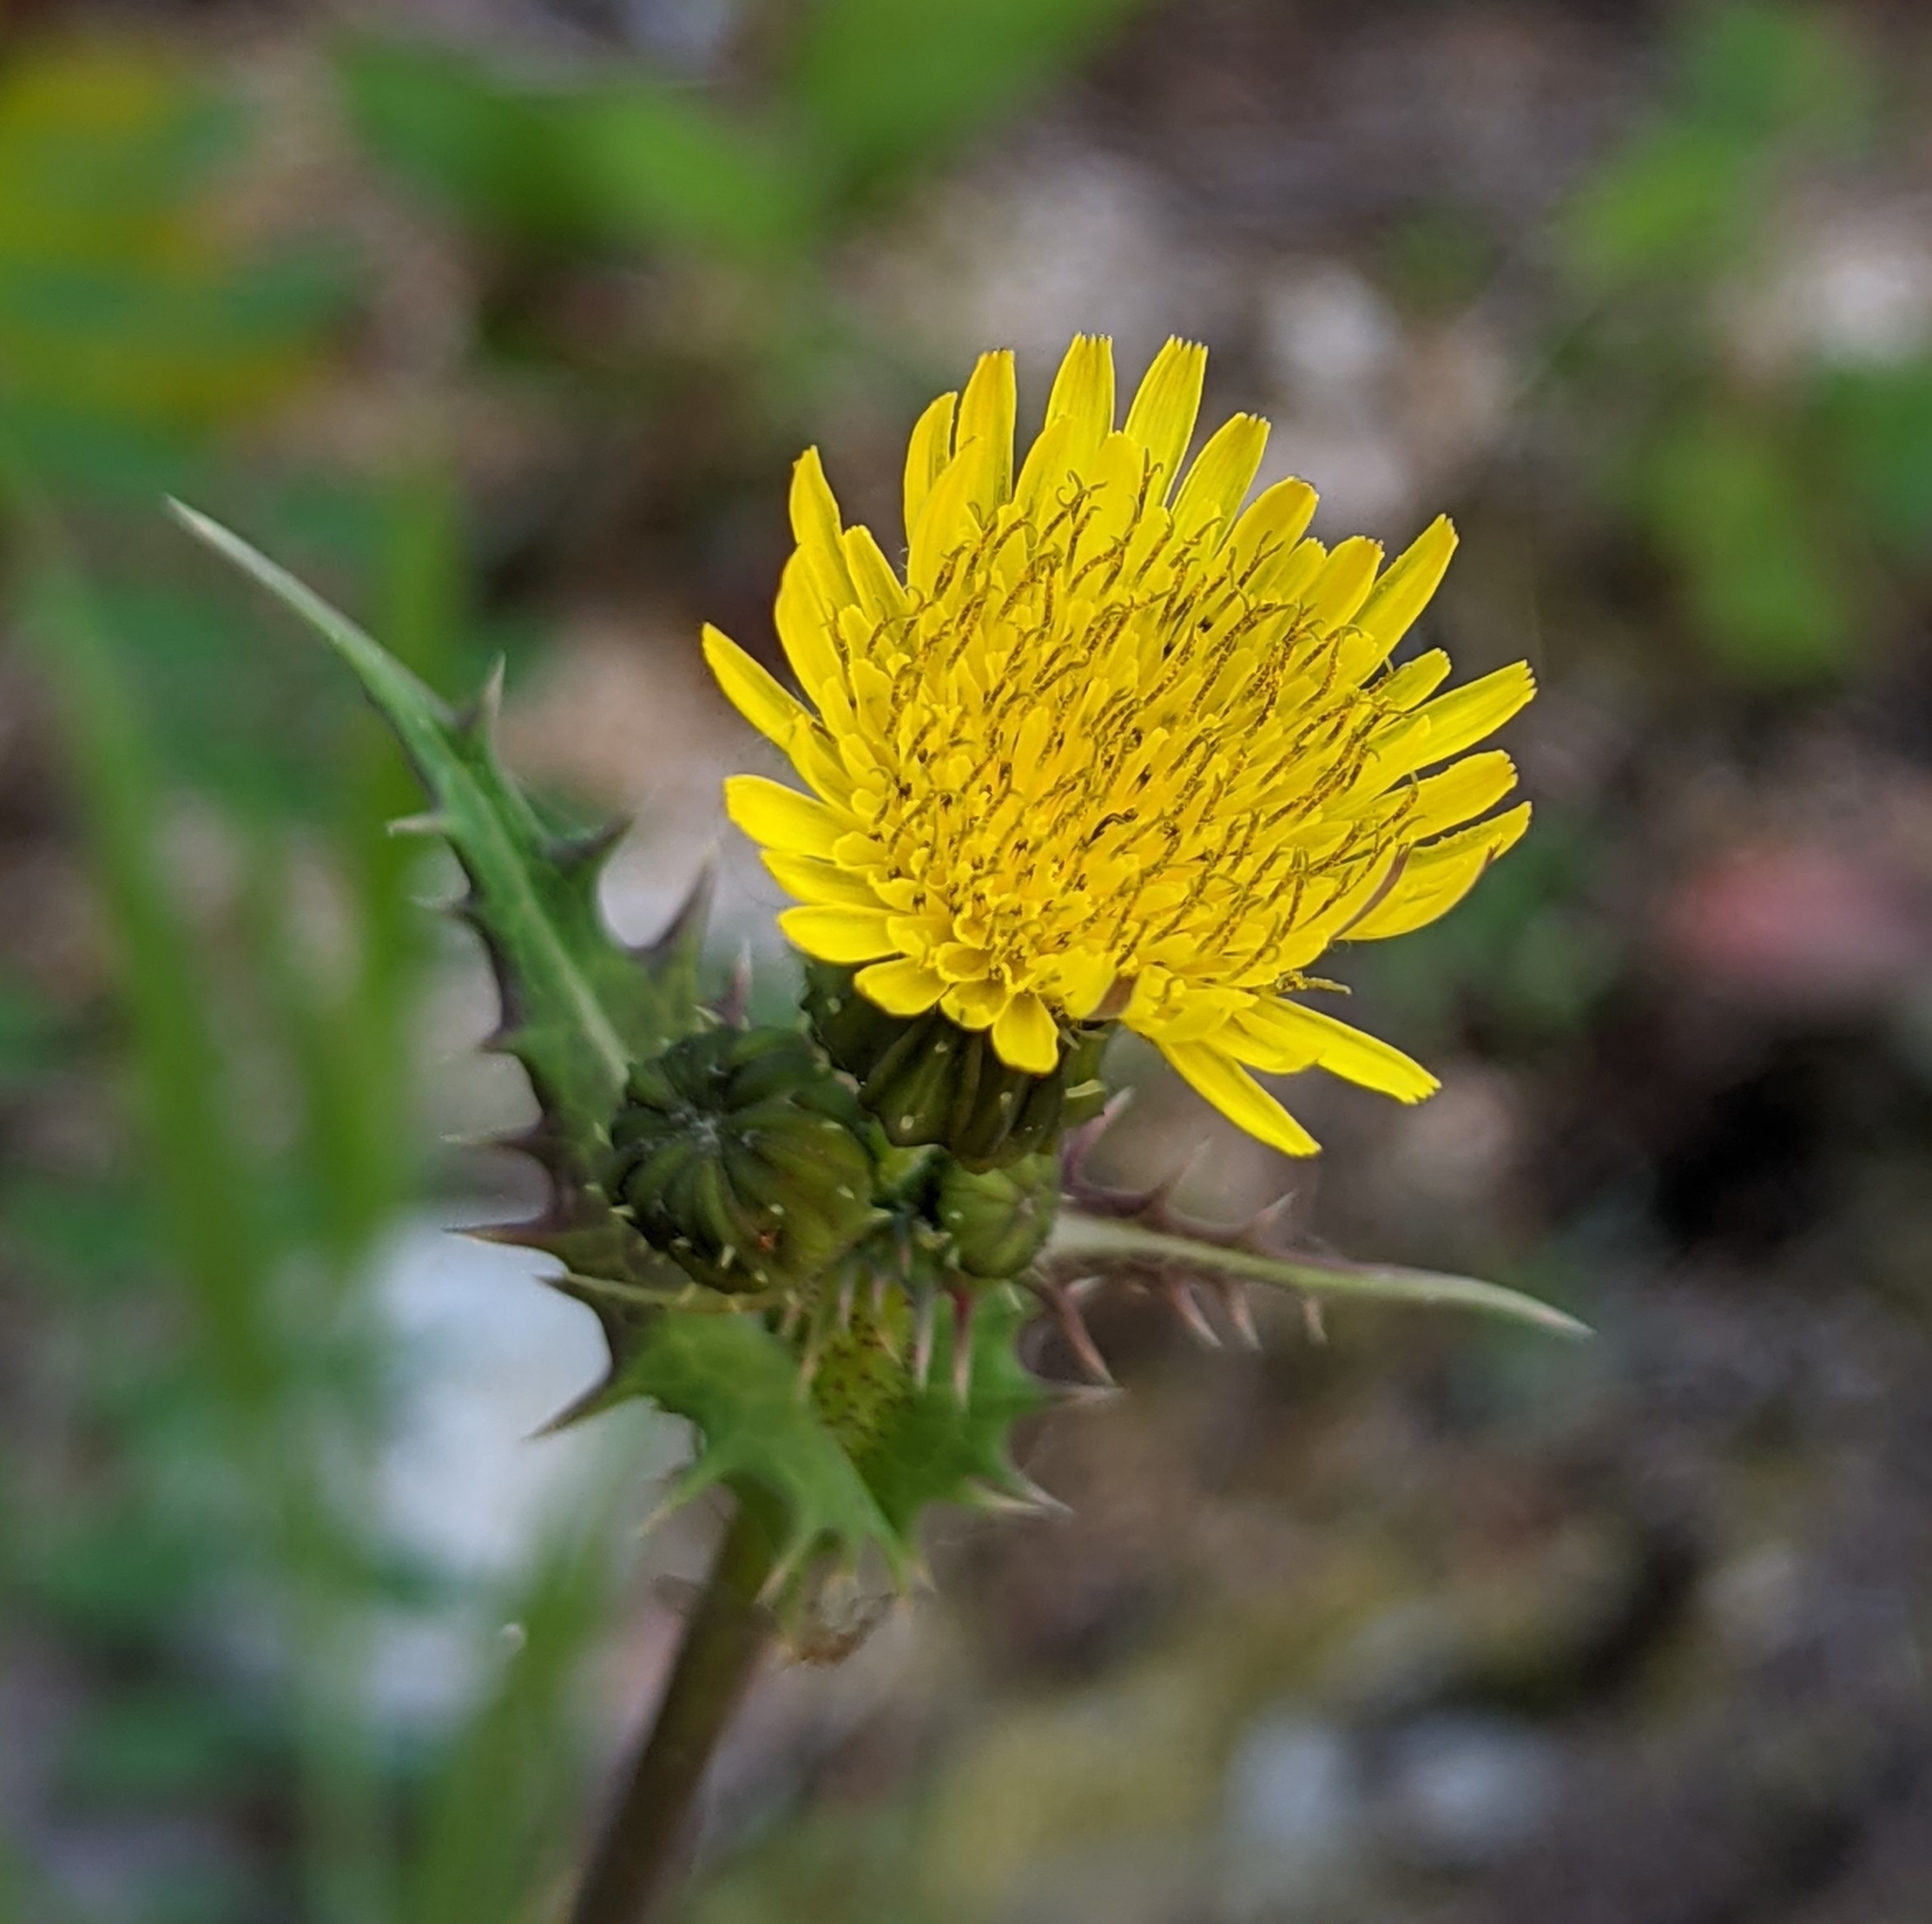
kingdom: Plantae
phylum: Tracheophyta
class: Magnoliopsida
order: Asterales
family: Asteraceae
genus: Sonchus
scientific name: Sonchus asper
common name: Prickly sow-thistle
